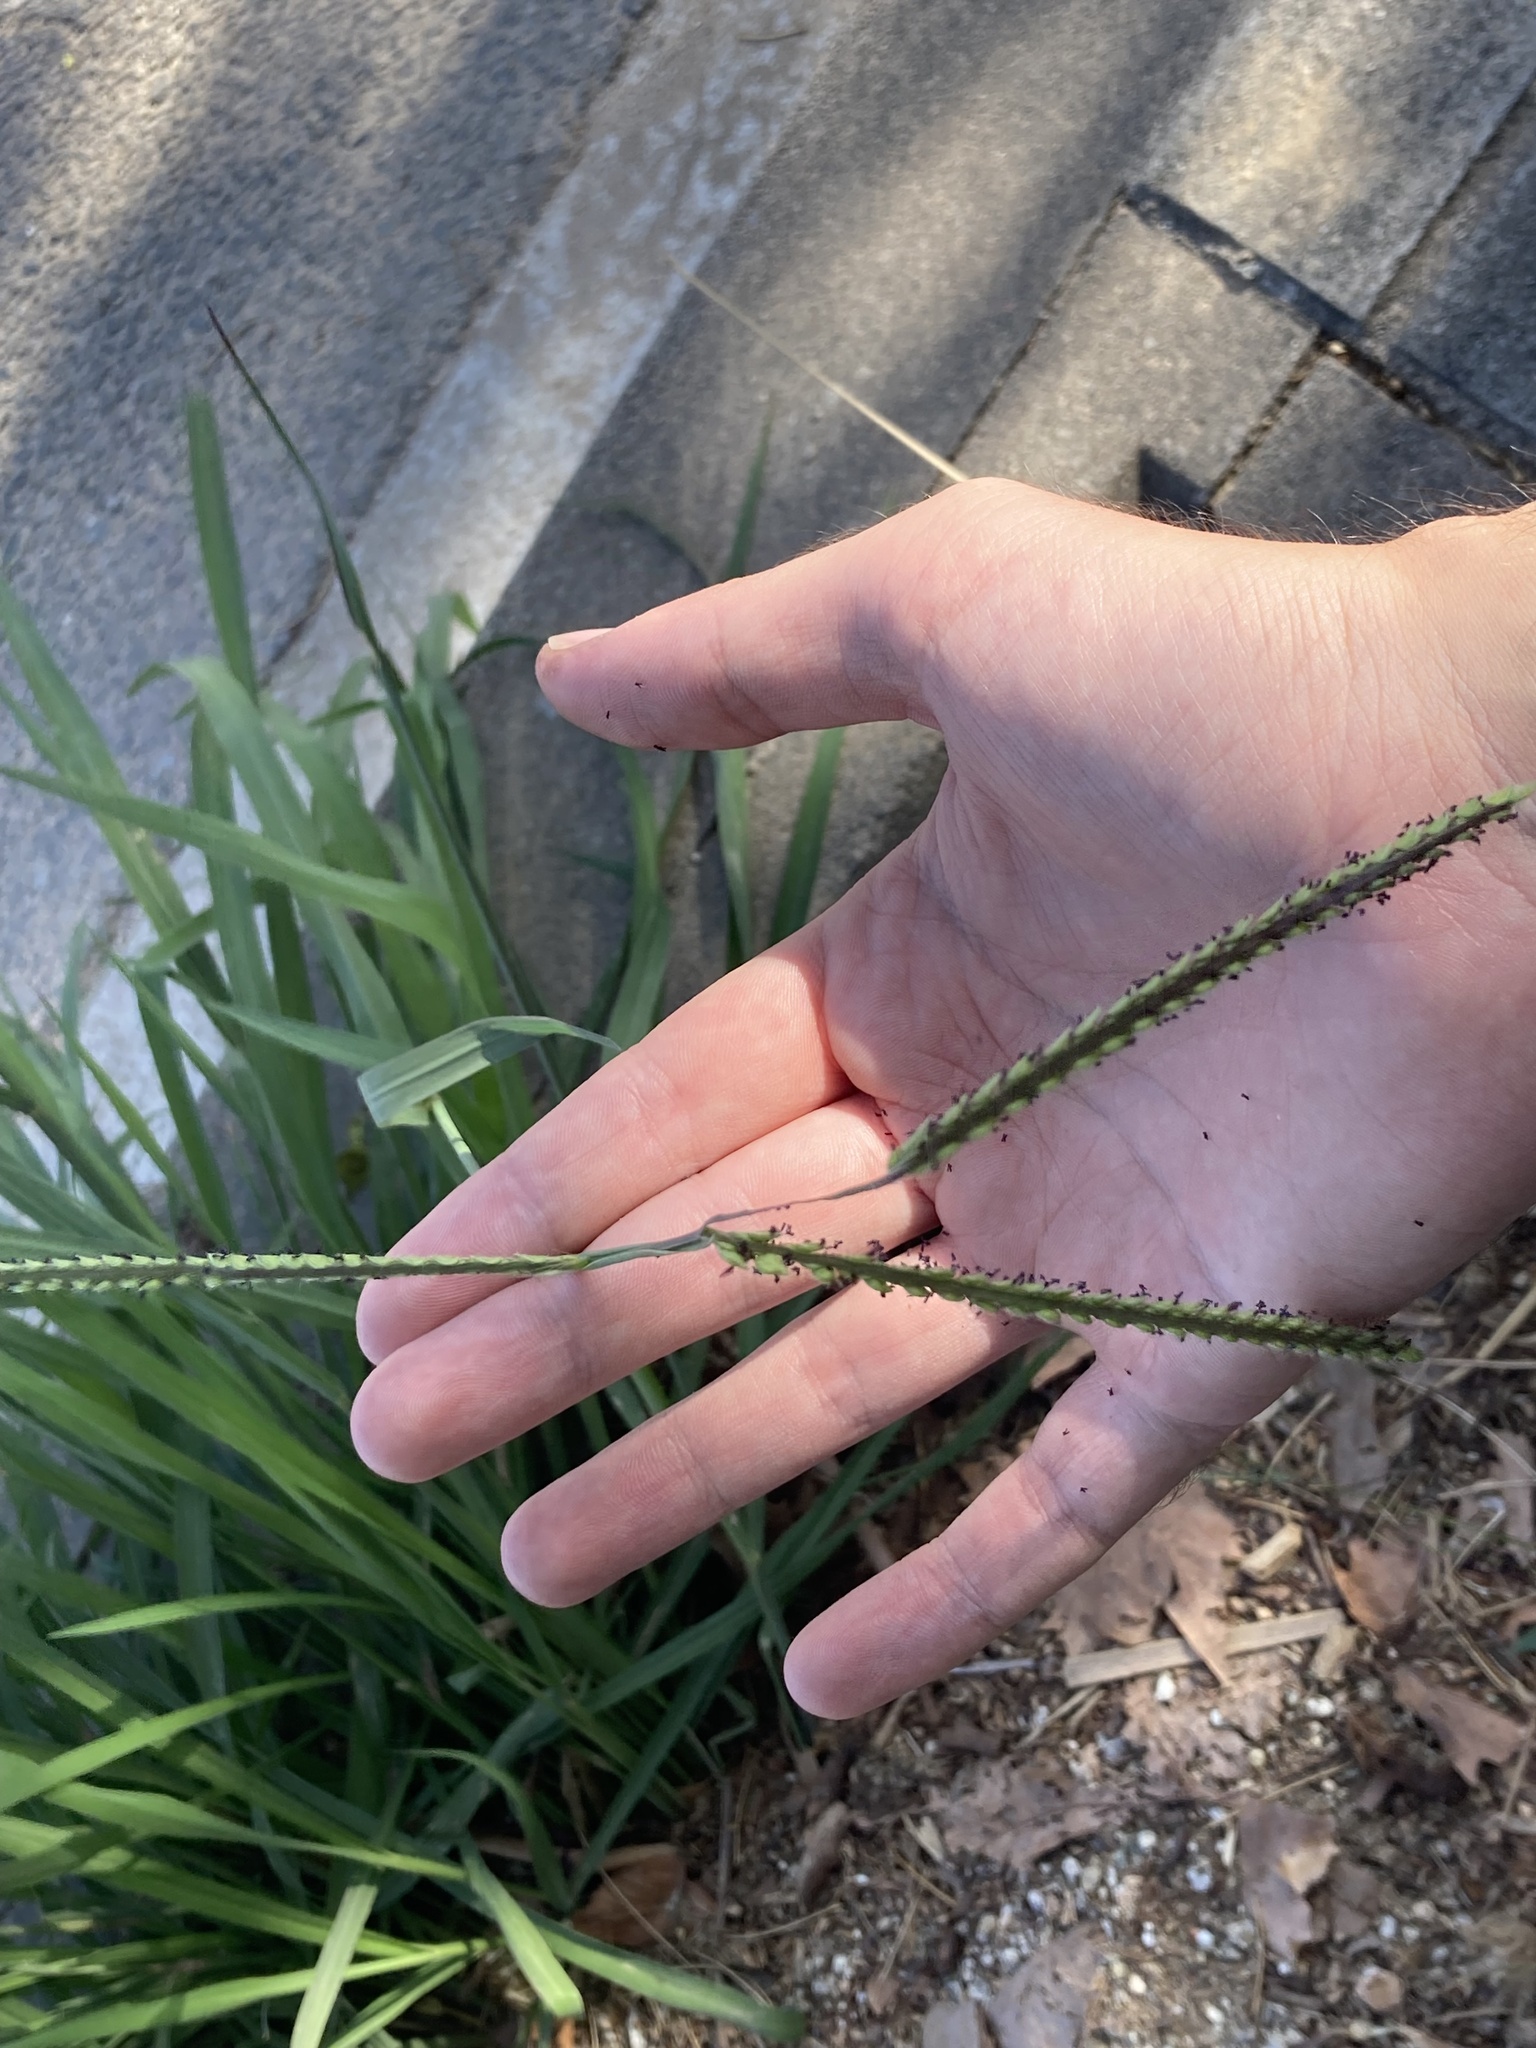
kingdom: Plantae
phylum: Tracheophyta
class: Liliopsida
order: Poales
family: Poaceae
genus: Paspalum
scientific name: Paspalum dilatatum
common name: Dallisgrass
